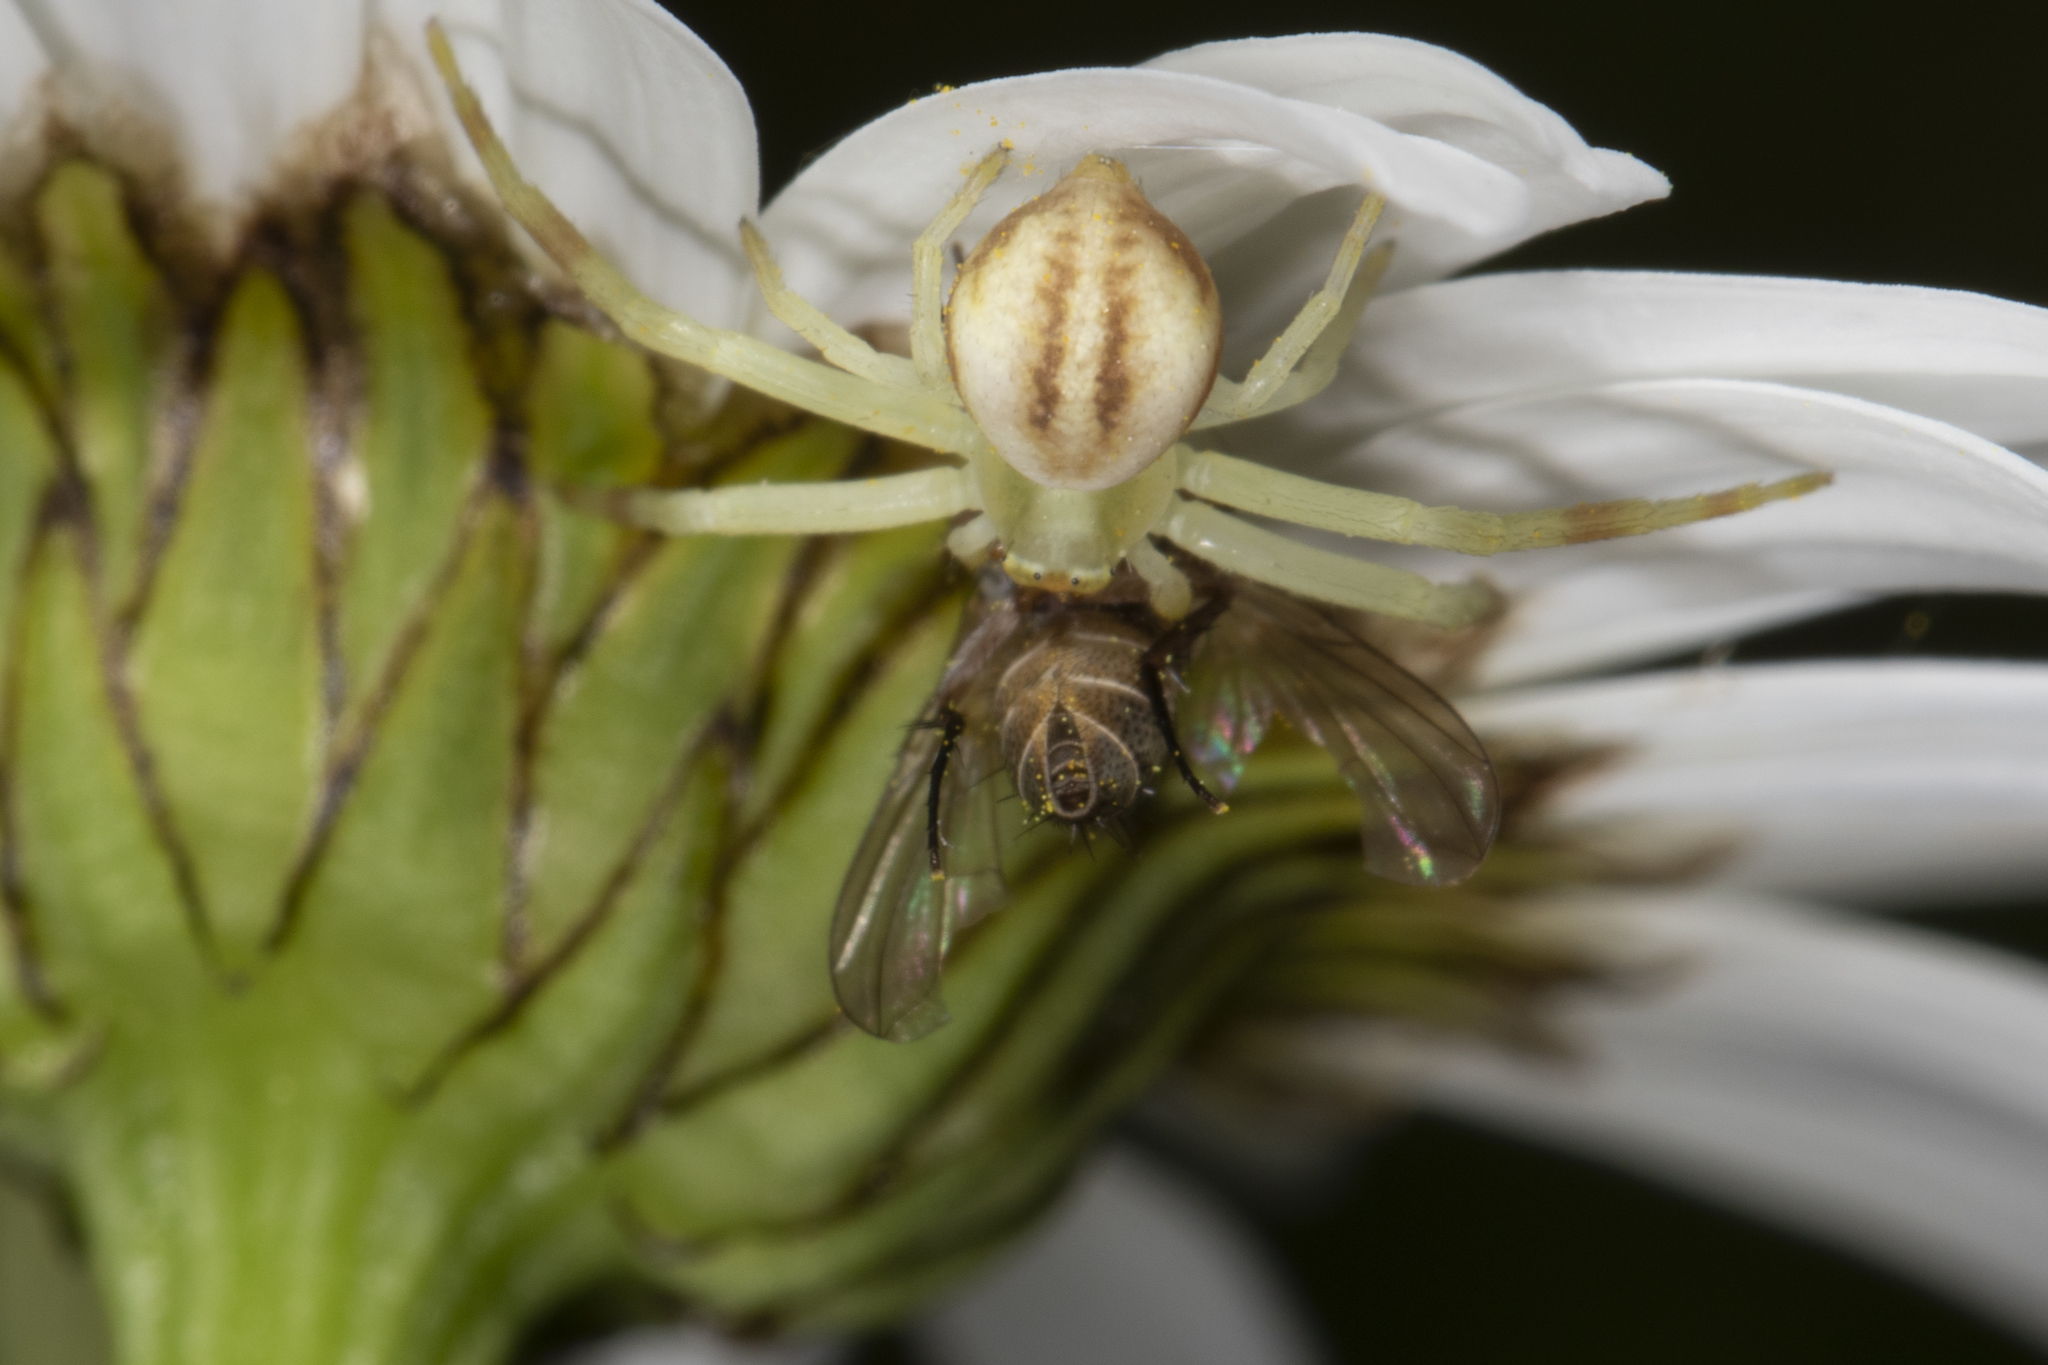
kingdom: Animalia
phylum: Arthropoda
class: Arachnida
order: Araneae
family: Thomisidae
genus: Misumena
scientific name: Misumena vatia
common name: Goldenrod crab spider
